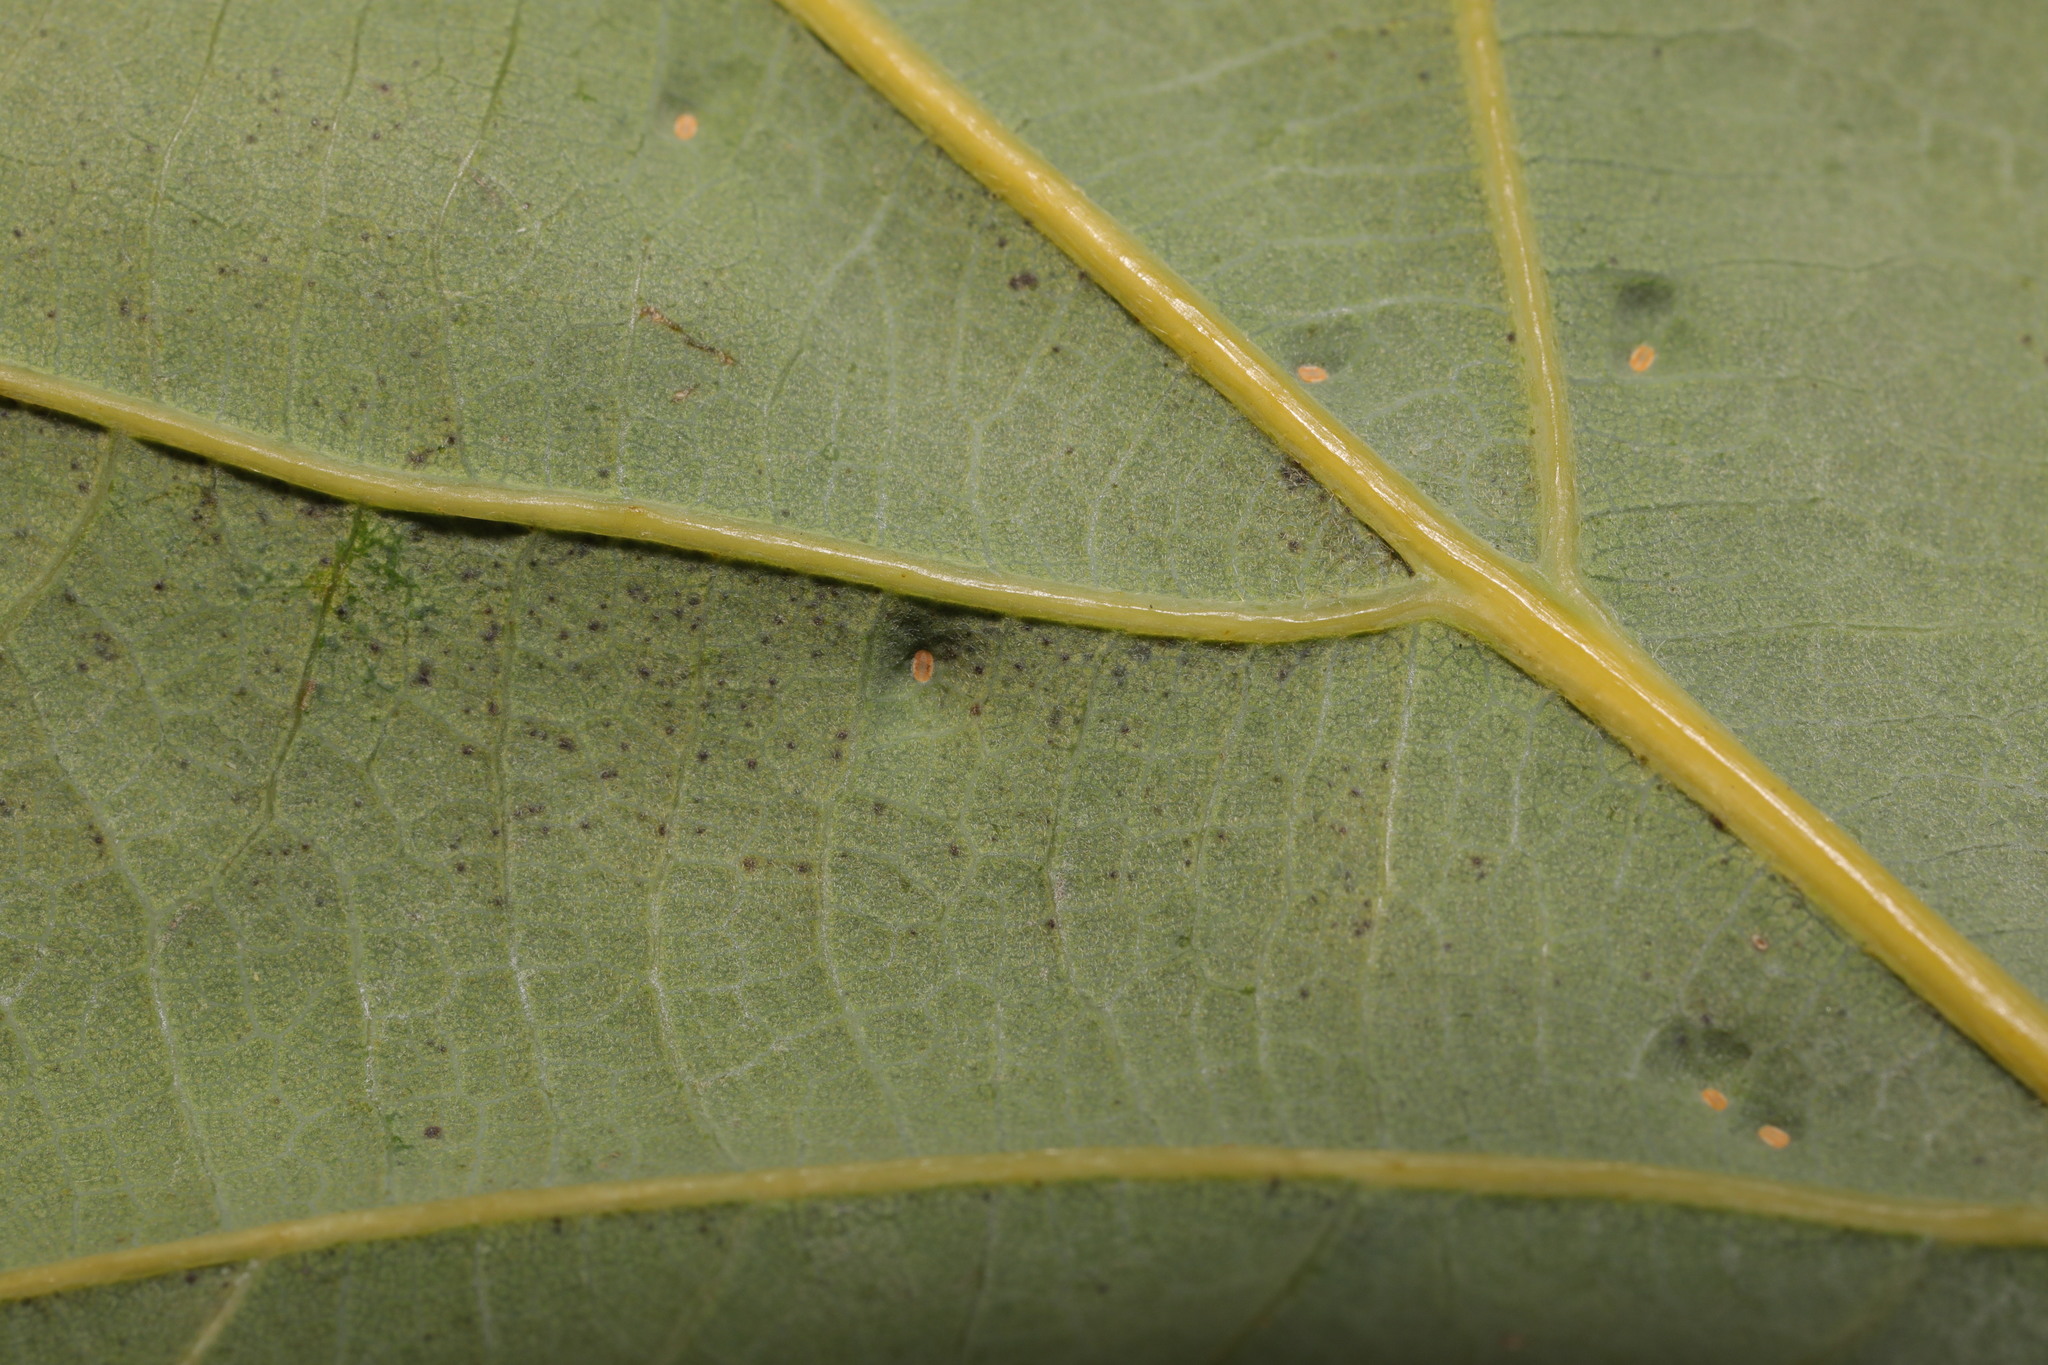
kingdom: Animalia
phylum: Arthropoda
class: Insecta
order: Hemiptera
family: Triozidae
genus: Trioza
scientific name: Trioza remota
